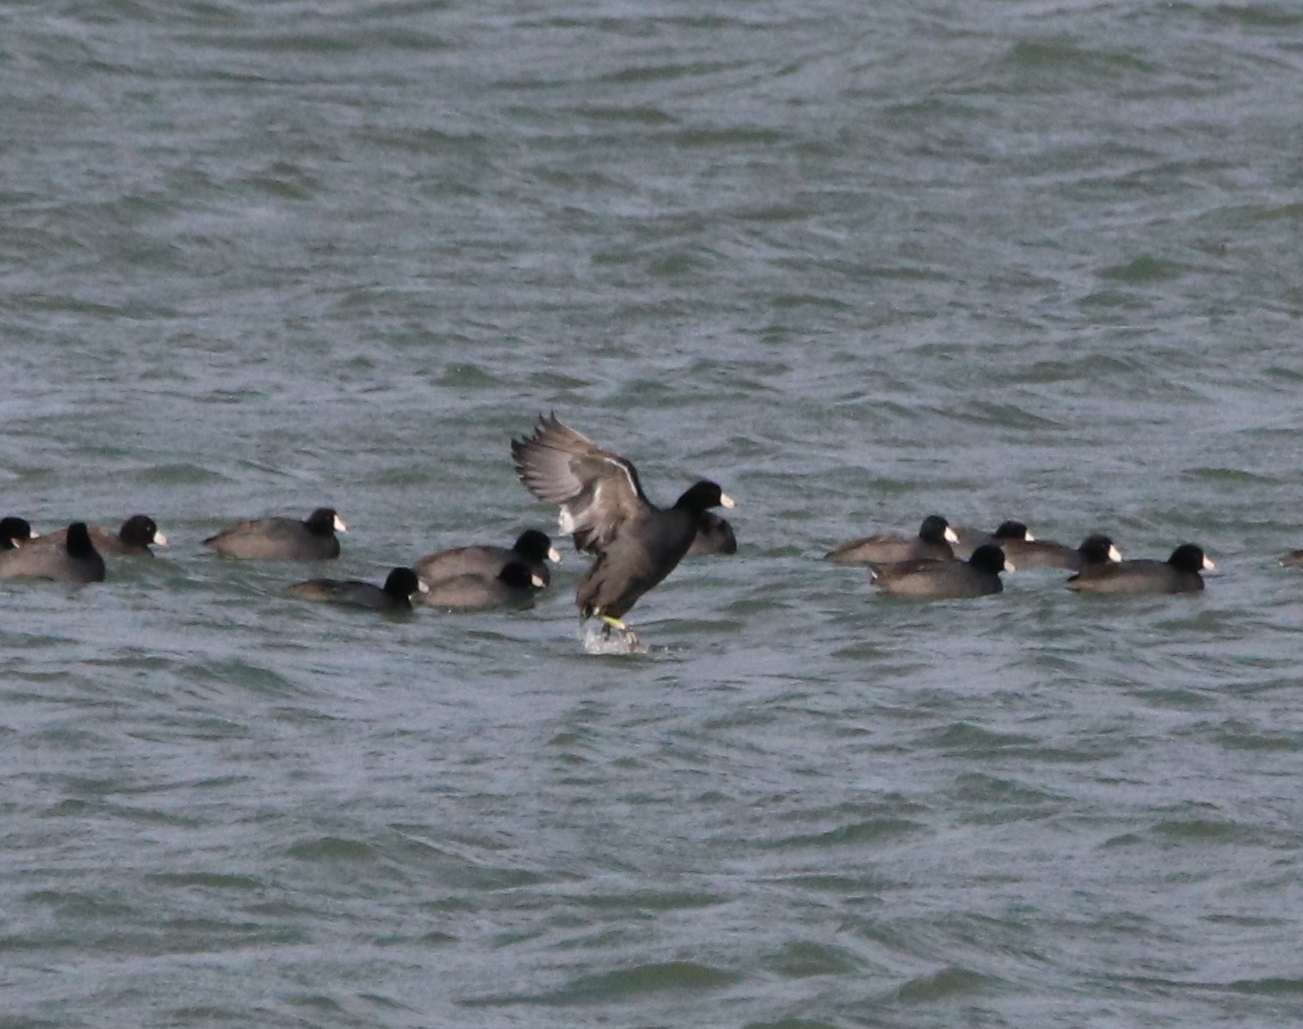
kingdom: Animalia
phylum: Chordata
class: Aves
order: Gruiformes
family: Rallidae
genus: Fulica
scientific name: Fulica americana
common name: American coot
